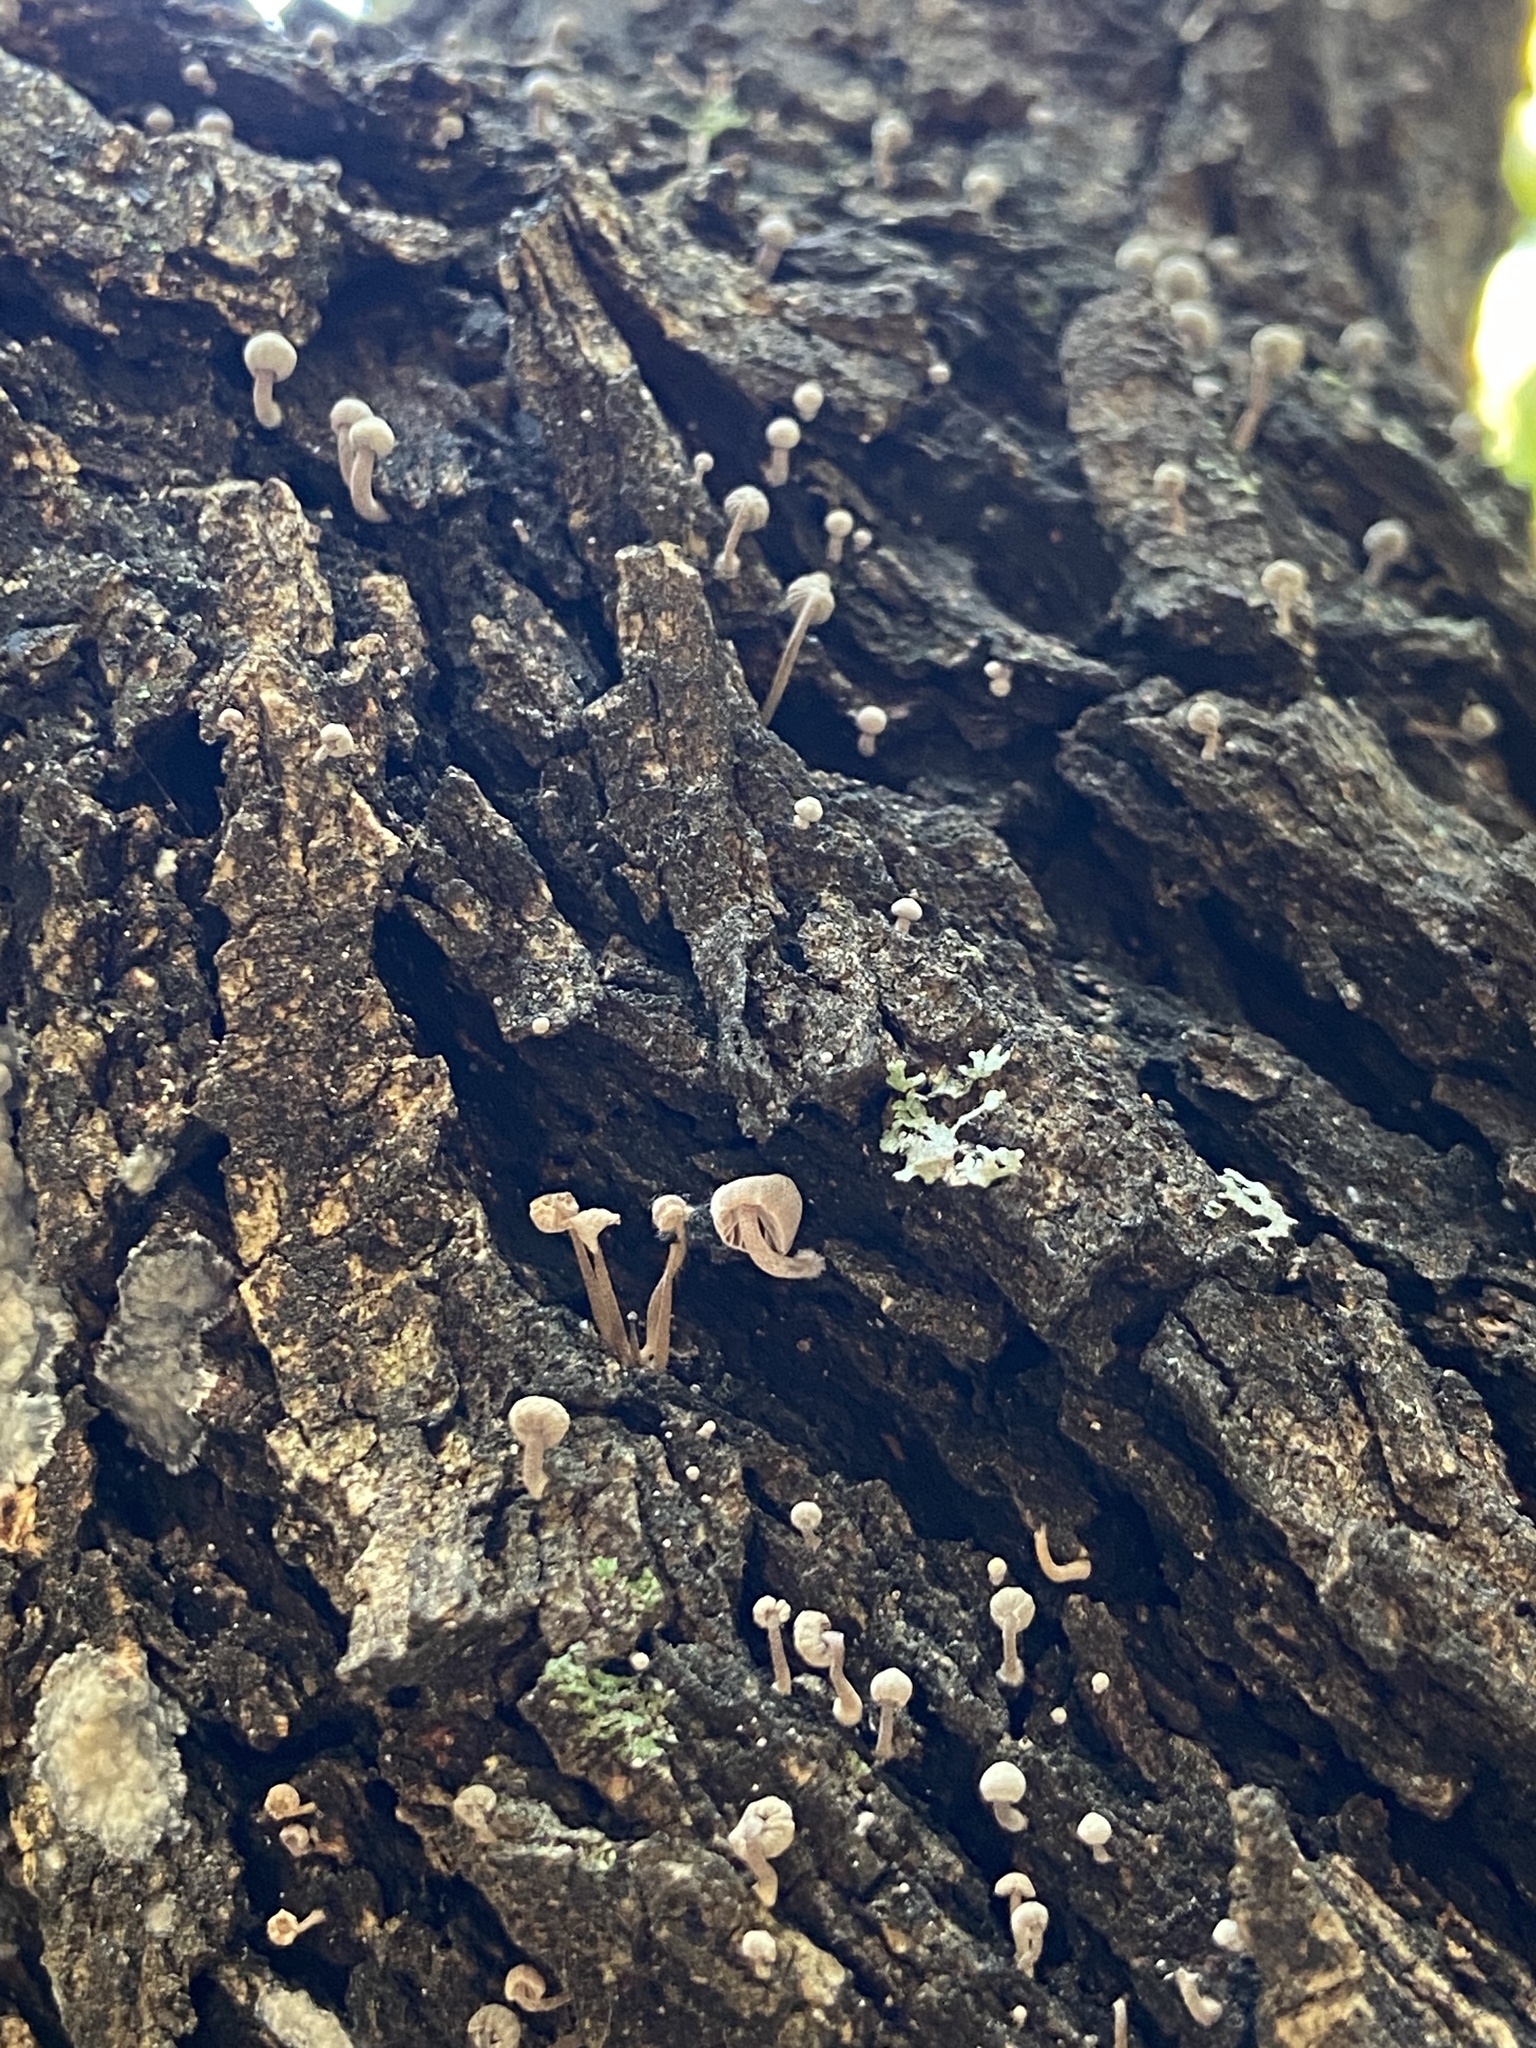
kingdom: Fungi
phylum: Basidiomycota
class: Agaricomycetes
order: Agaricales
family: Mycenaceae
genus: Mycena
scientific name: Mycena meliigena
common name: Mauve bonnet
